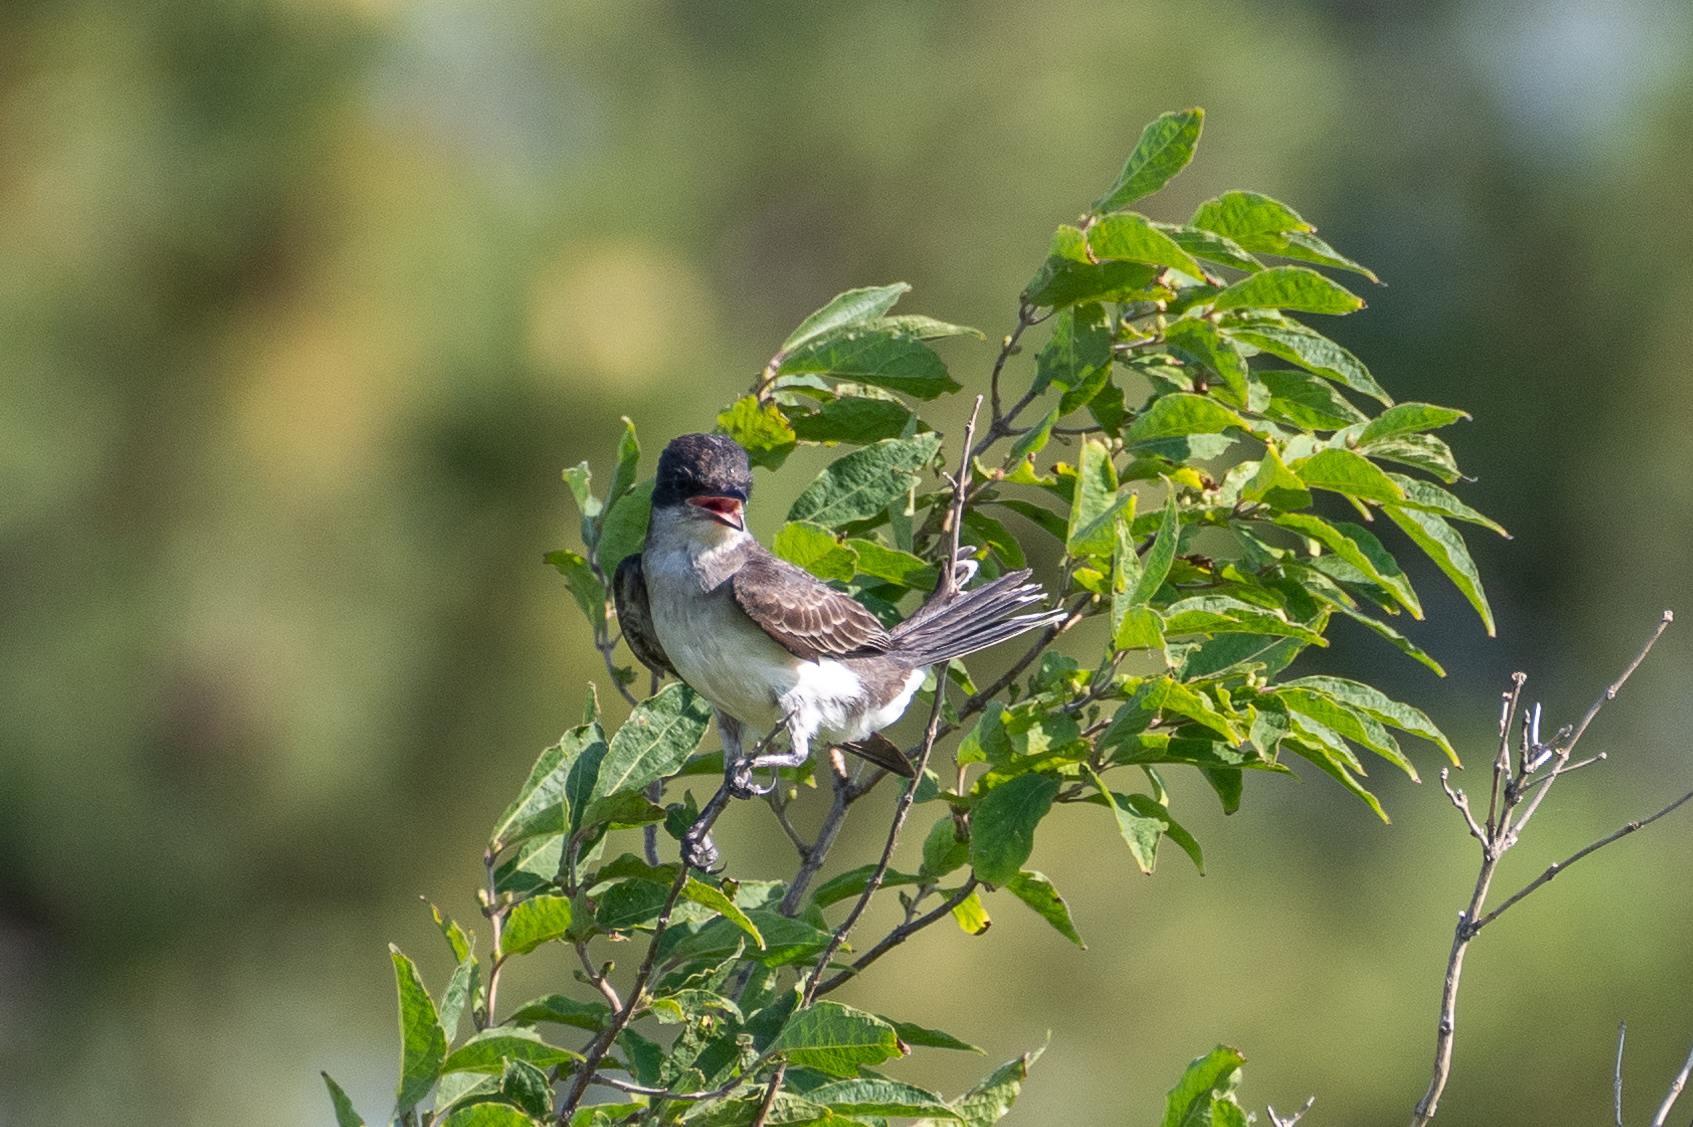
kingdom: Animalia
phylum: Chordata
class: Aves
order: Passeriformes
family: Tyrannidae
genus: Tyrannus
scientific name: Tyrannus tyrannus
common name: Eastern kingbird
